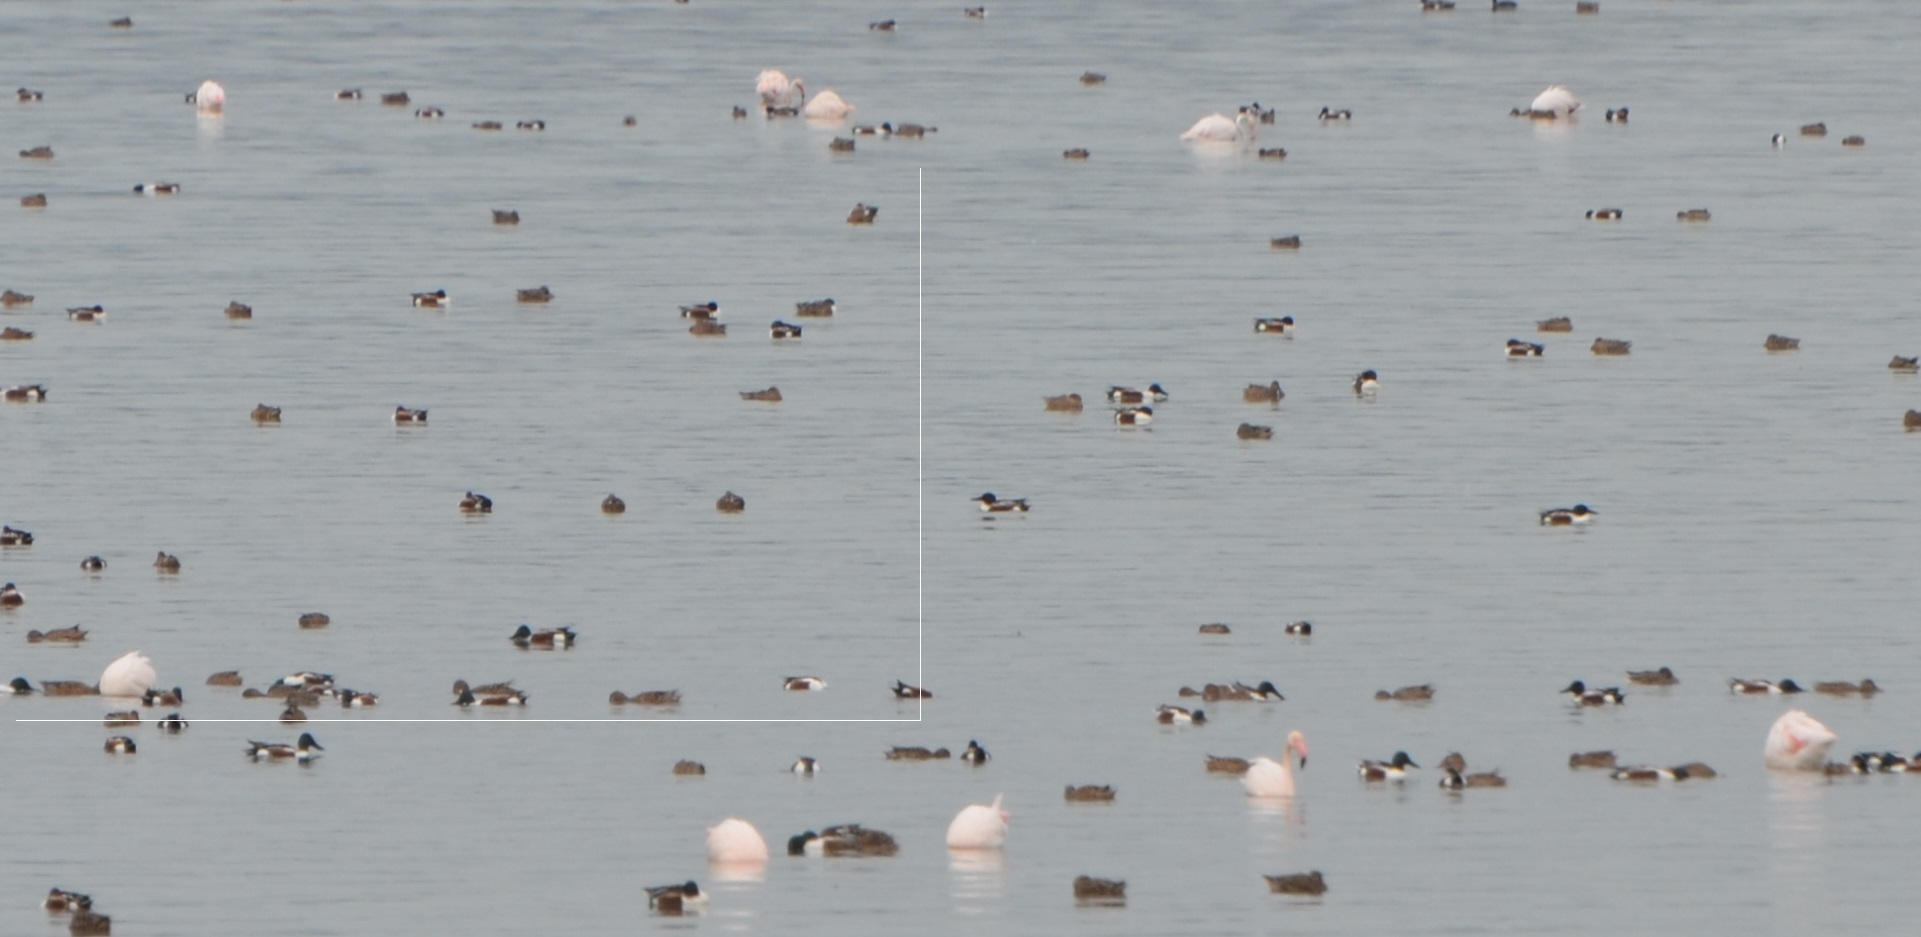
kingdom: Animalia
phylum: Chordata
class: Aves
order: Anseriformes
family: Anatidae
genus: Spatula
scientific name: Spatula clypeata
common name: Northern shoveler
